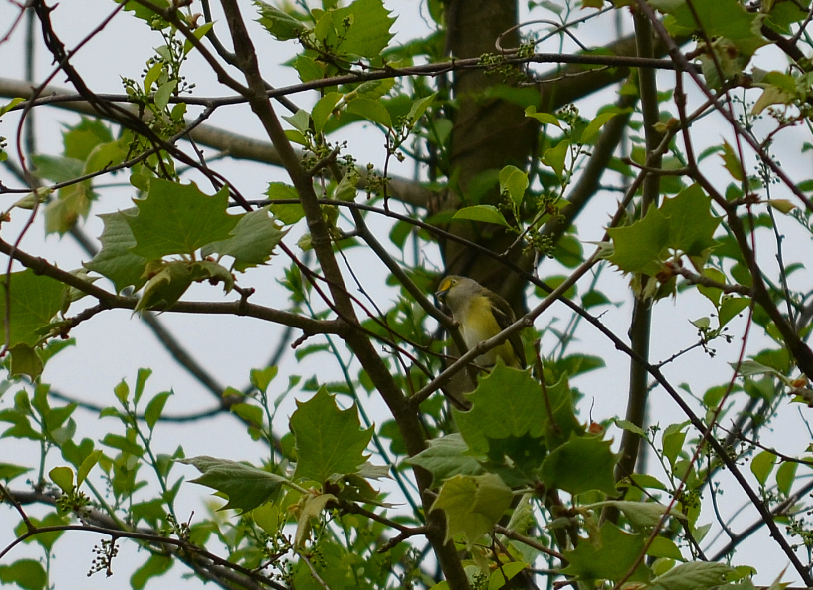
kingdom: Animalia
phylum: Chordata
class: Aves
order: Passeriformes
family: Vireonidae
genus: Vireo
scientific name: Vireo griseus
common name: White-eyed vireo
